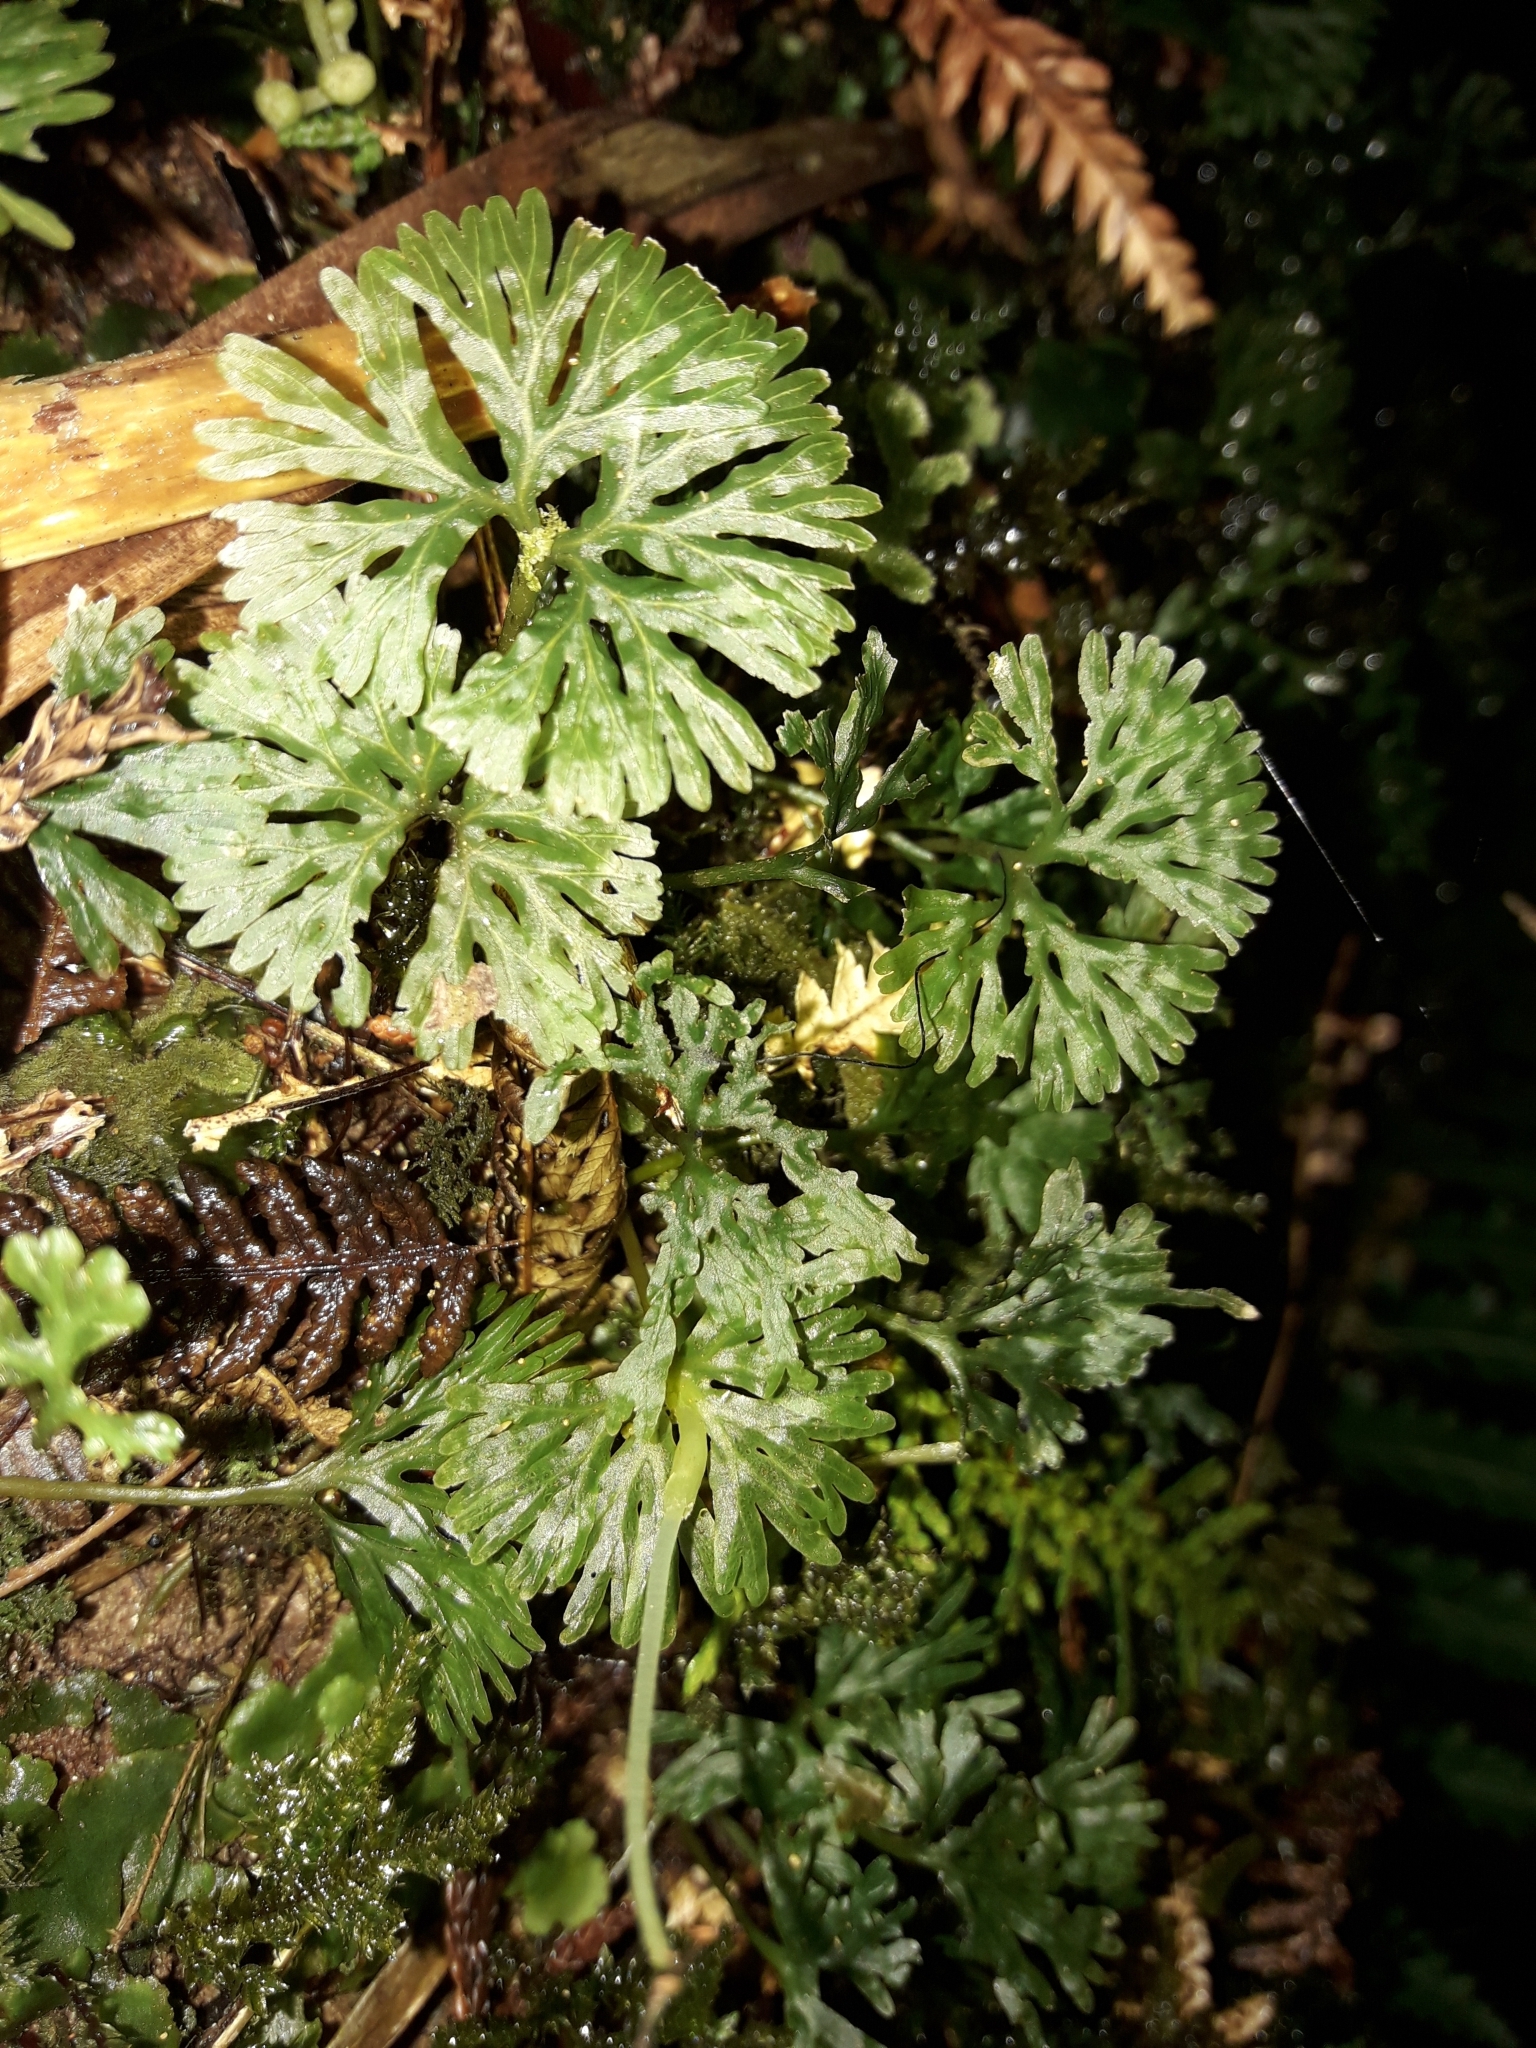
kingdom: Plantae
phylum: Marchantiophyta
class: Jungermanniopsida
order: Pallaviciniales
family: Hymenophytaceae
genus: Hymenophyton
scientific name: Hymenophyton flabellatum
